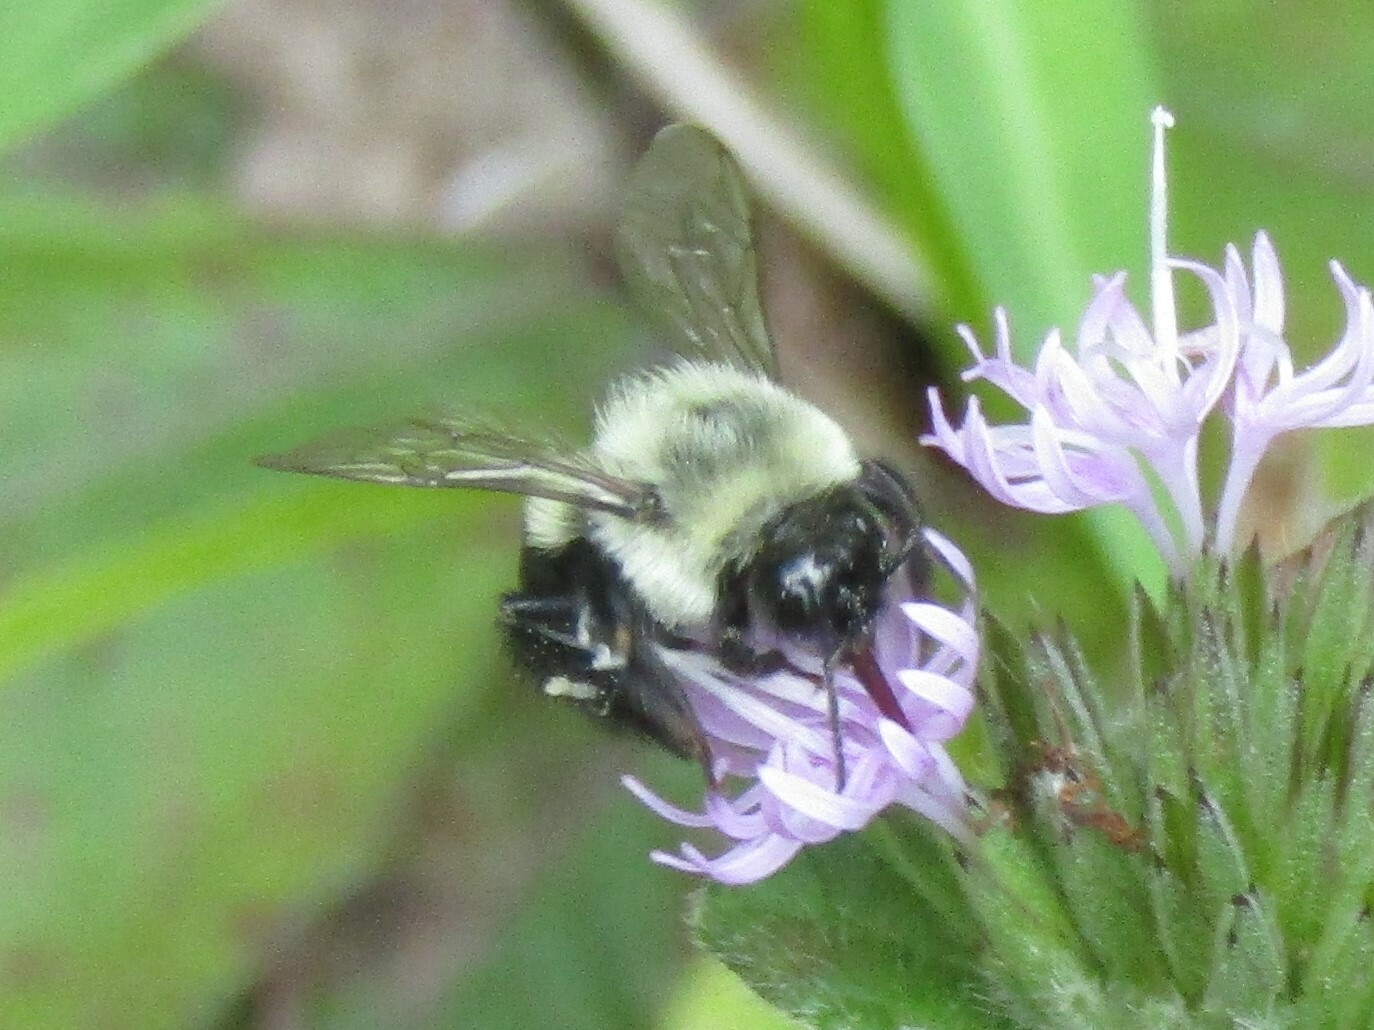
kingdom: Animalia
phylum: Arthropoda
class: Insecta
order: Hymenoptera
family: Apidae
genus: Bombus
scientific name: Bombus impatiens
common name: Common eastern bumble bee
